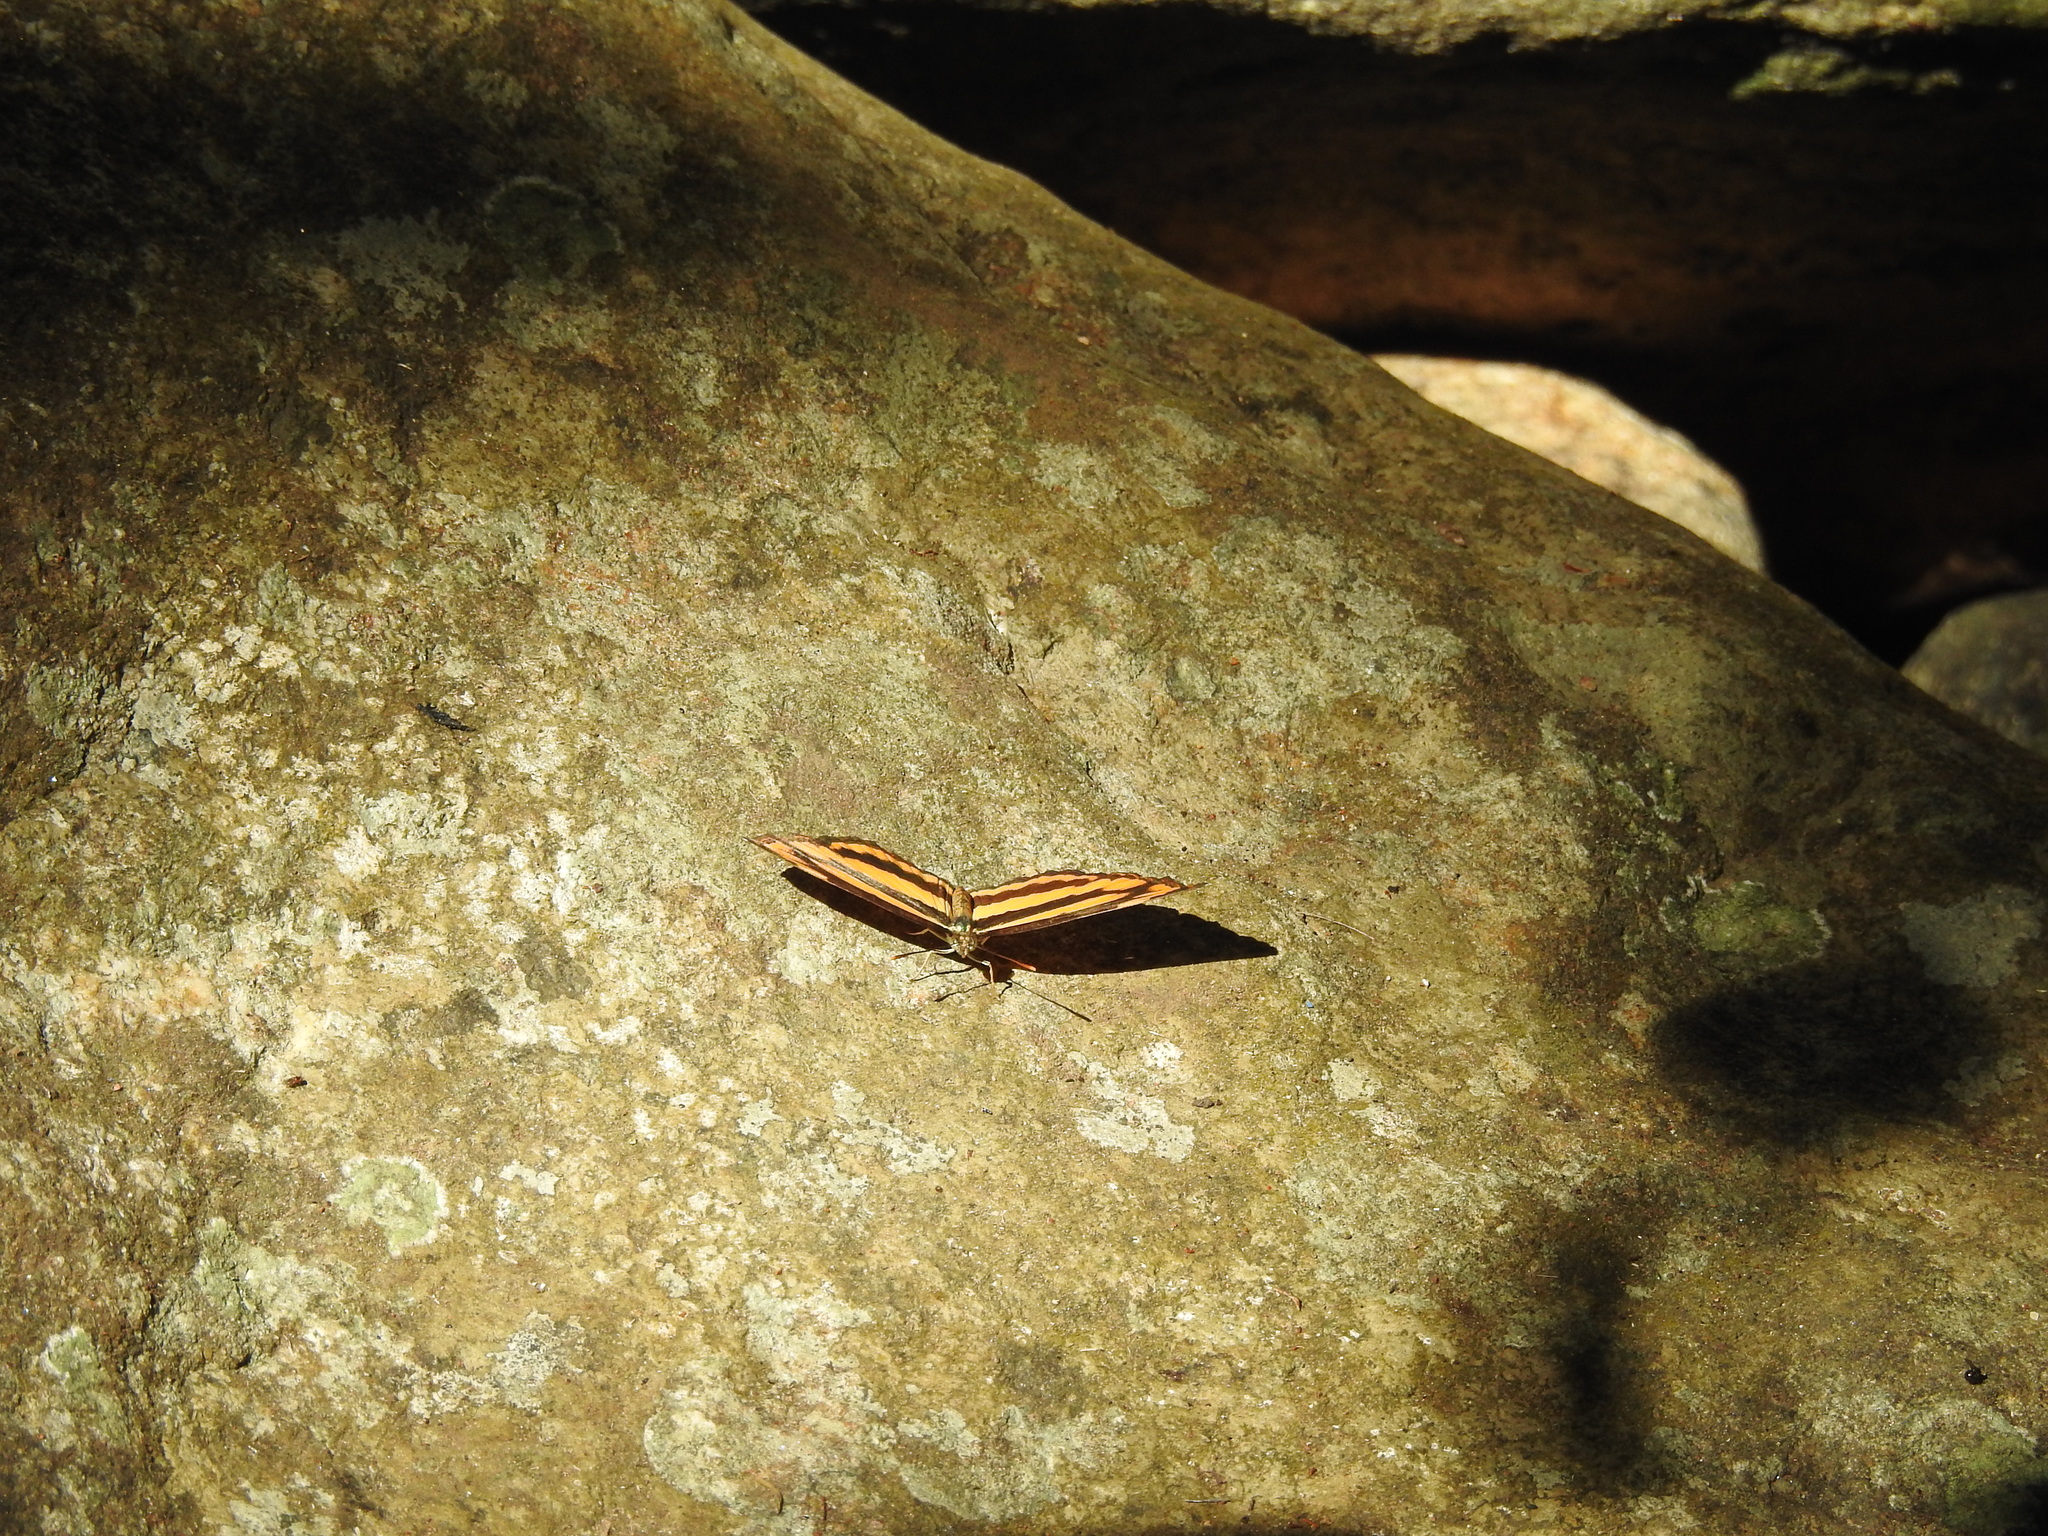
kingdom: Animalia
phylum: Arthropoda
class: Insecta
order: Lepidoptera
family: Nymphalidae
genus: Pantoporia
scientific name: Pantoporia hordonia
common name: Common lascar
